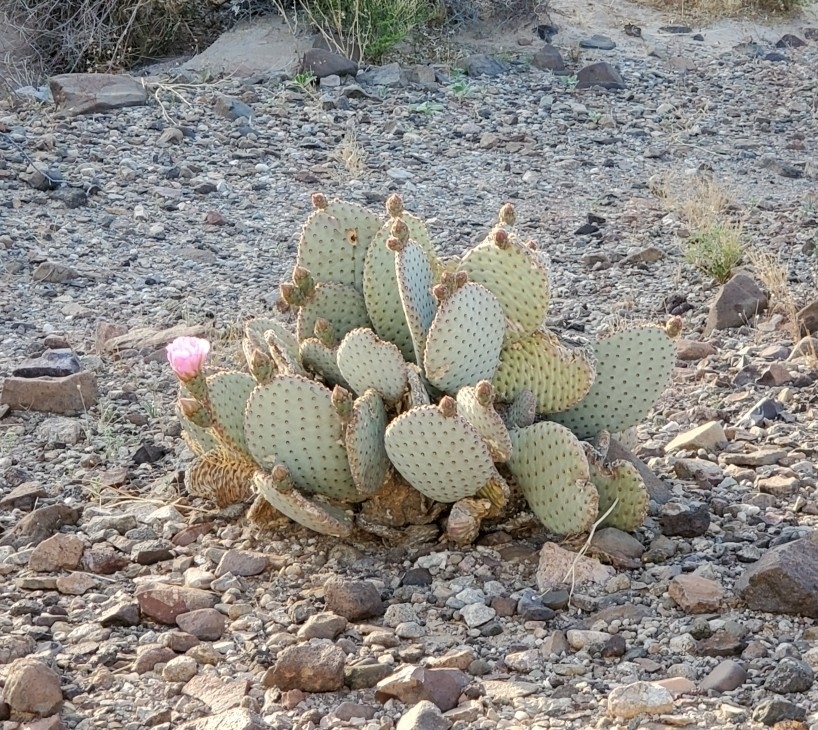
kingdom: Plantae
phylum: Tracheophyta
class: Magnoliopsida
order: Caryophyllales
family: Cactaceae
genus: Opuntia
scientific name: Opuntia basilaris
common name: Beavertail prickly-pear
